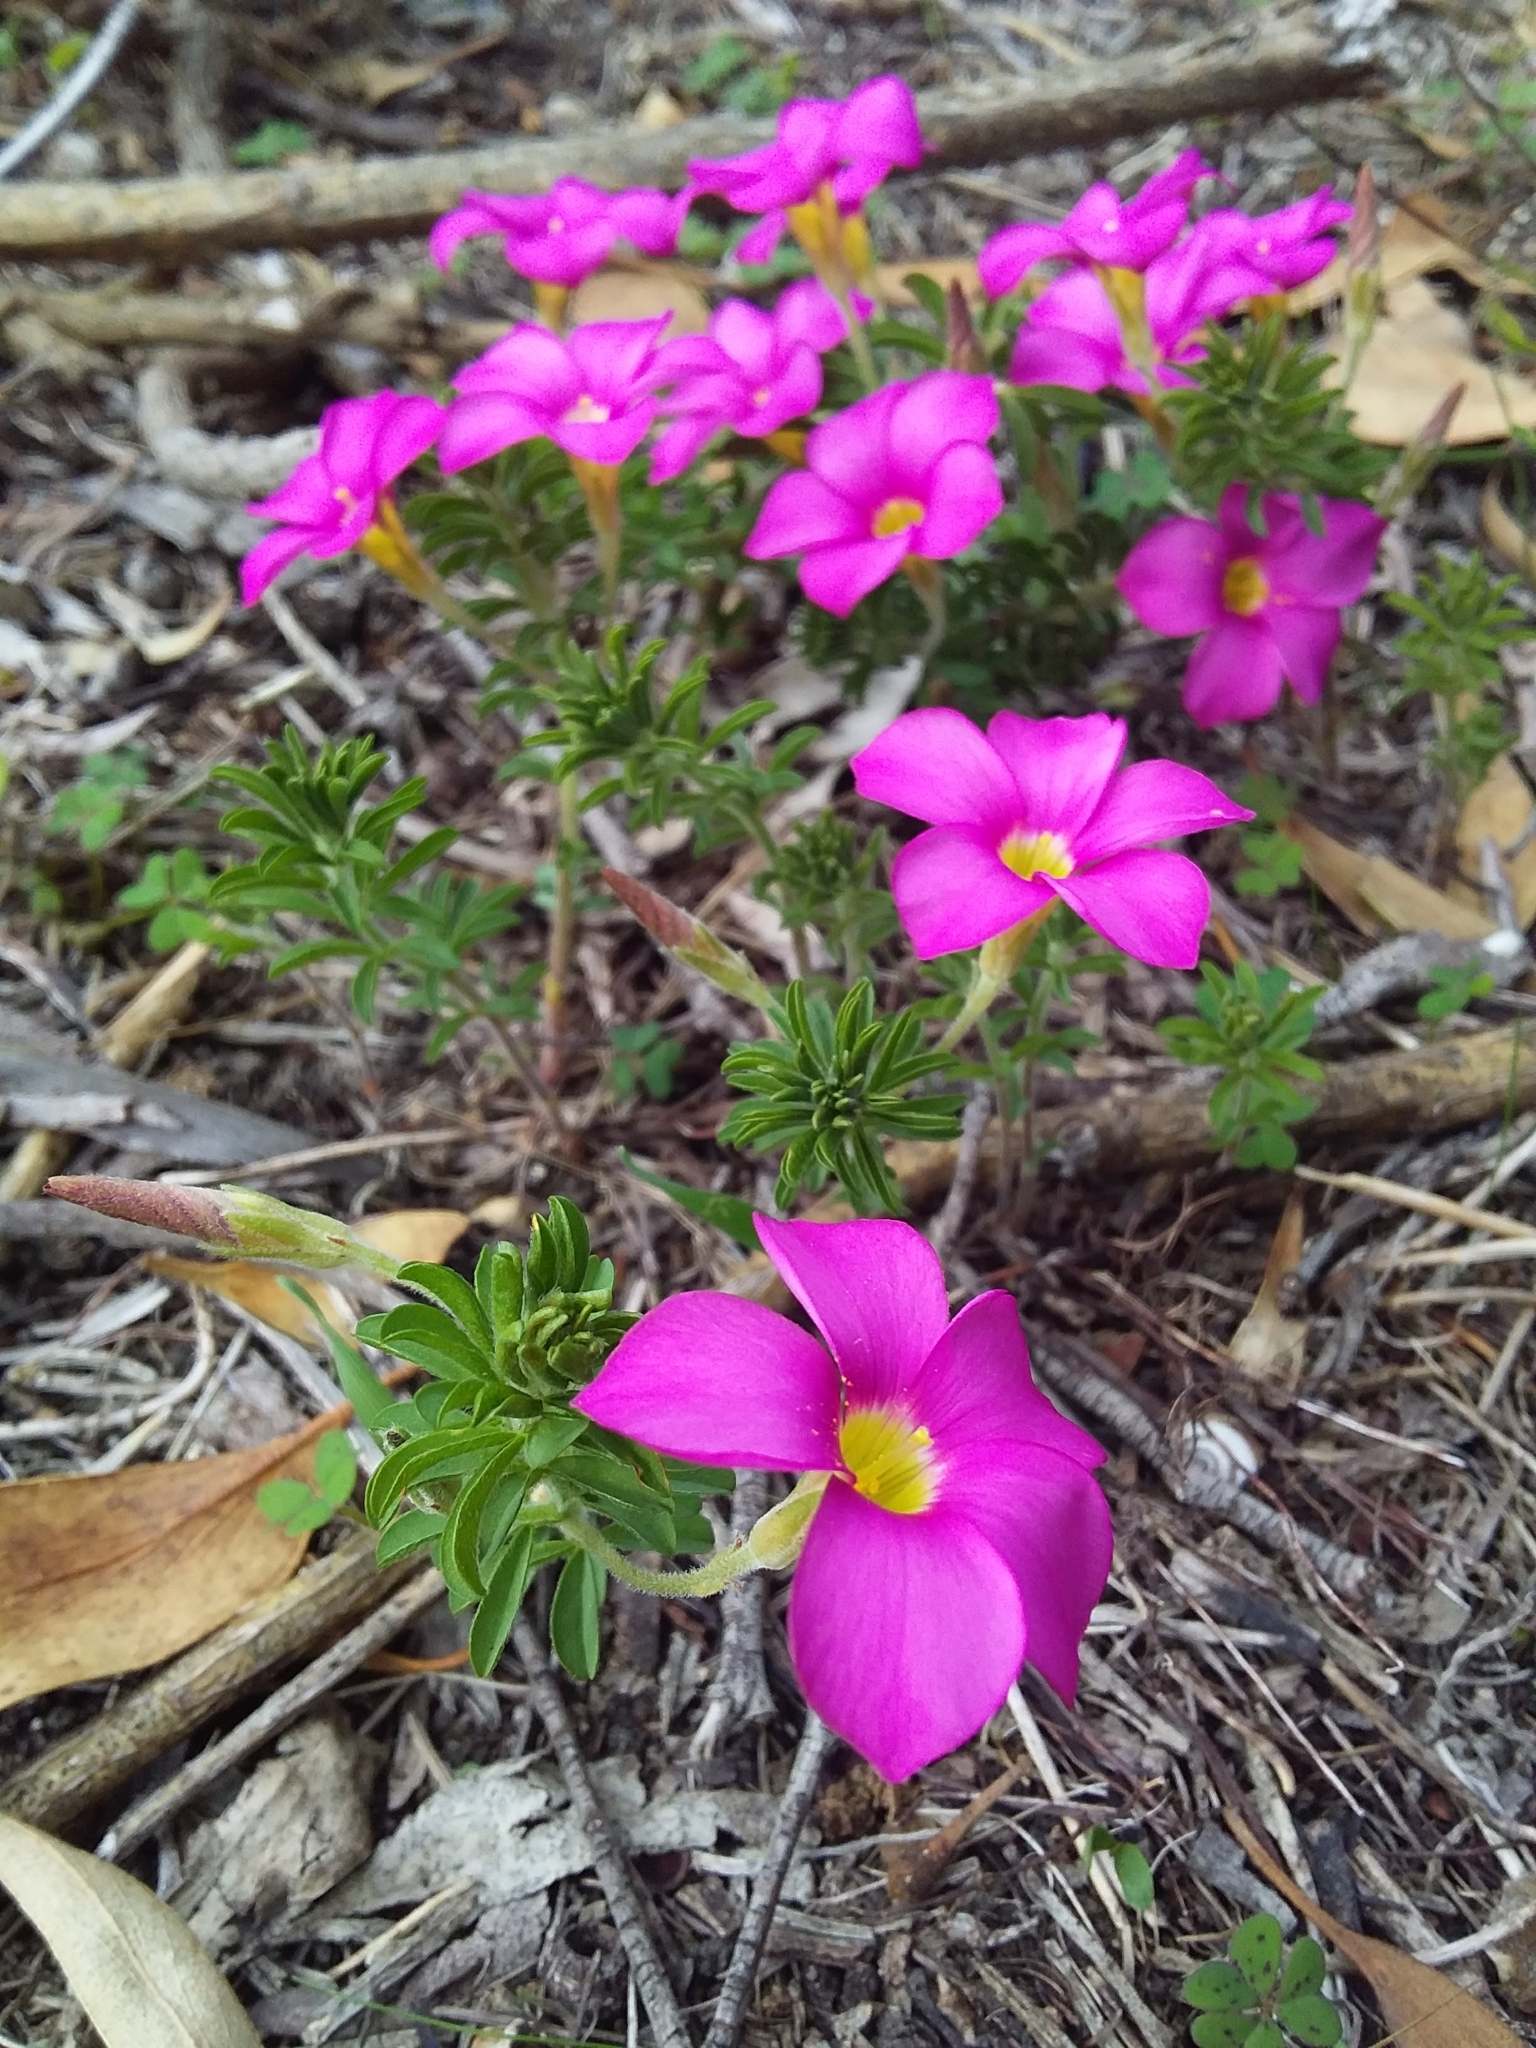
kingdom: Plantae
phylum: Tracheophyta
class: Magnoliopsida
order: Oxalidales
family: Oxalidaceae
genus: Oxalis
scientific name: Oxalis hirta
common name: Tropical woodsorrel
